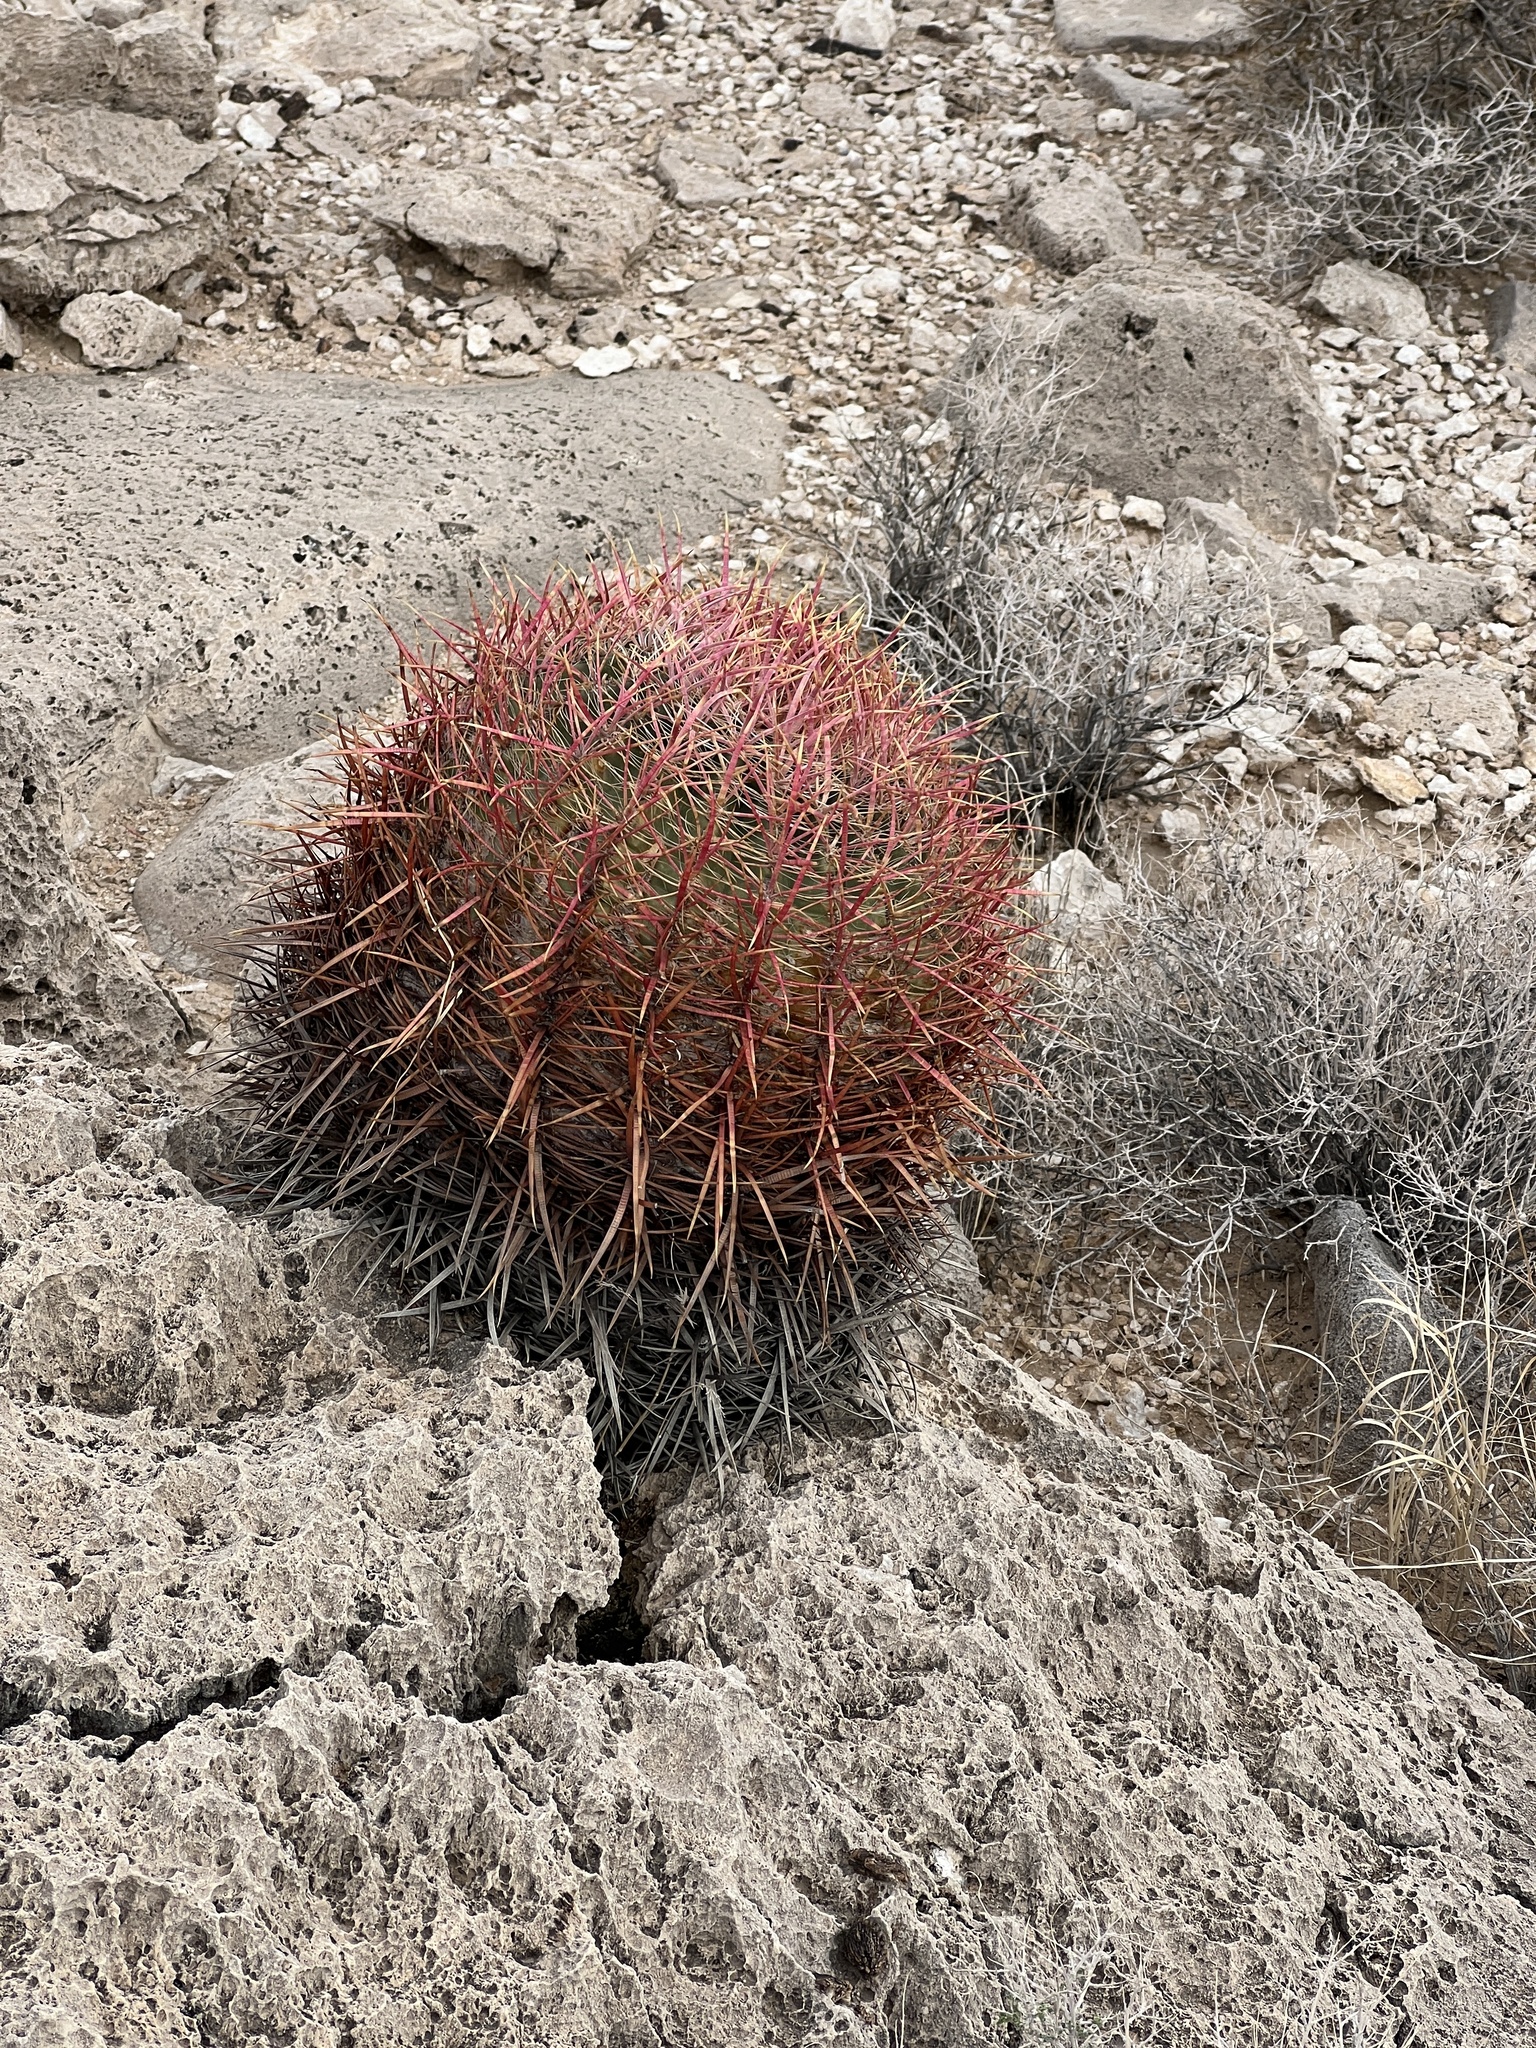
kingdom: Plantae
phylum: Tracheophyta
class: Magnoliopsida
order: Caryophyllales
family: Cactaceae
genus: Ferocactus
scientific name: Ferocactus cylindraceus
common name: California barrel cactus
